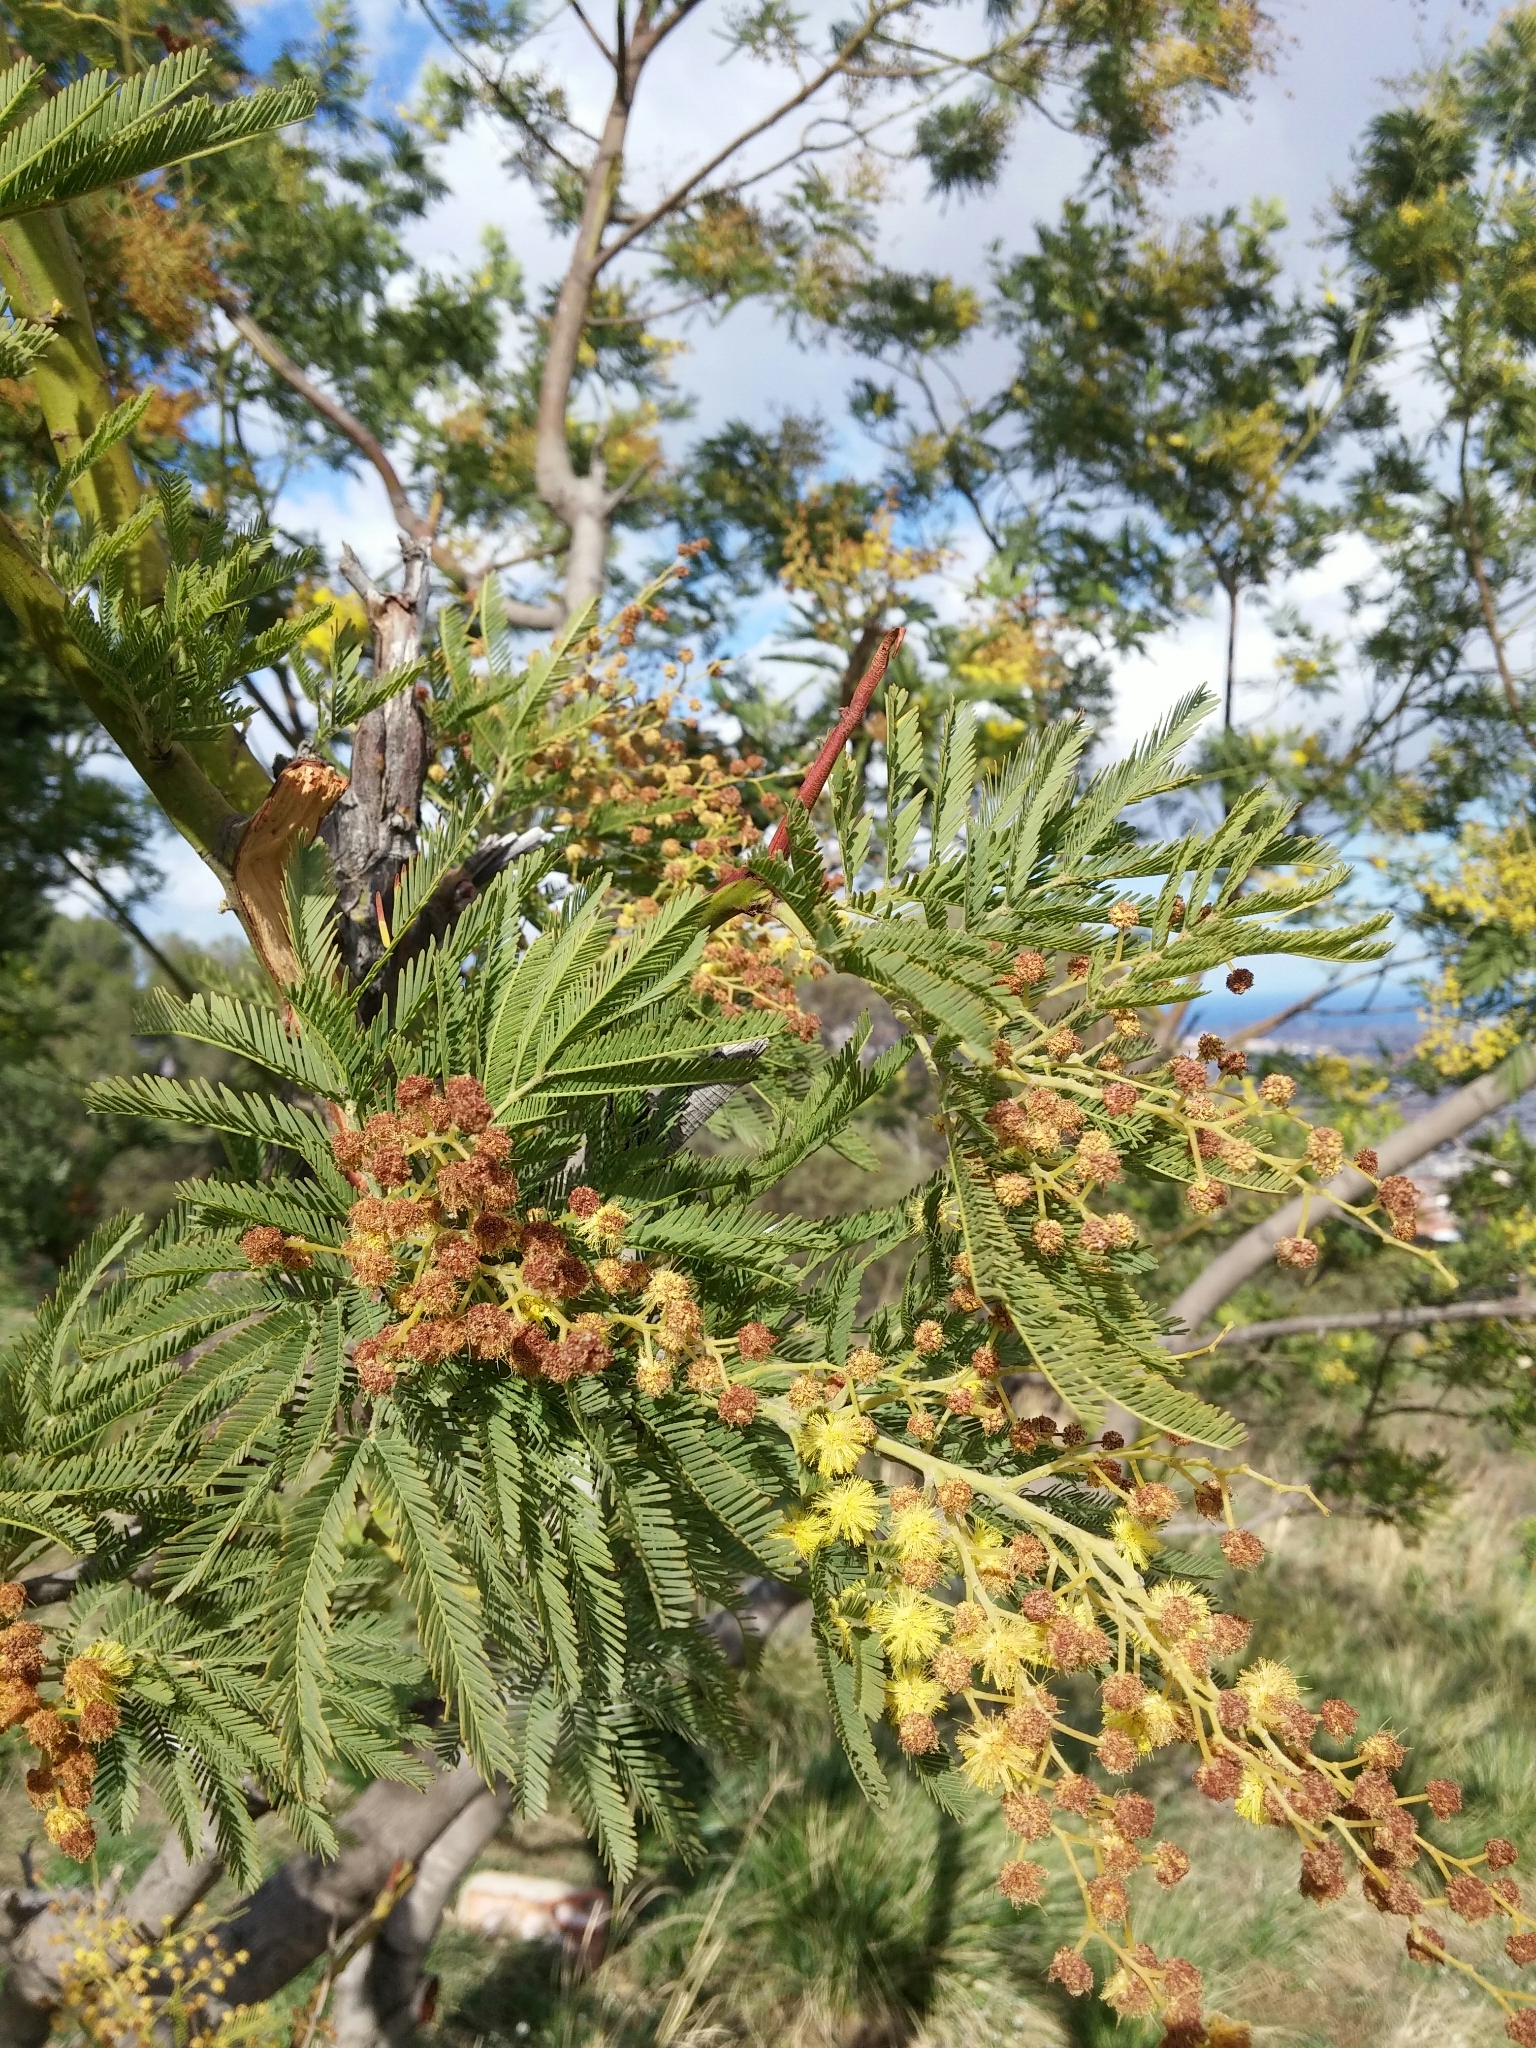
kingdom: Plantae
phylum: Tracheophyta
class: Magnoliopsida
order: Fabales
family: Fabaceae
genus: Acacia
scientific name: Acacia dealbata
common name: Silver wattle
